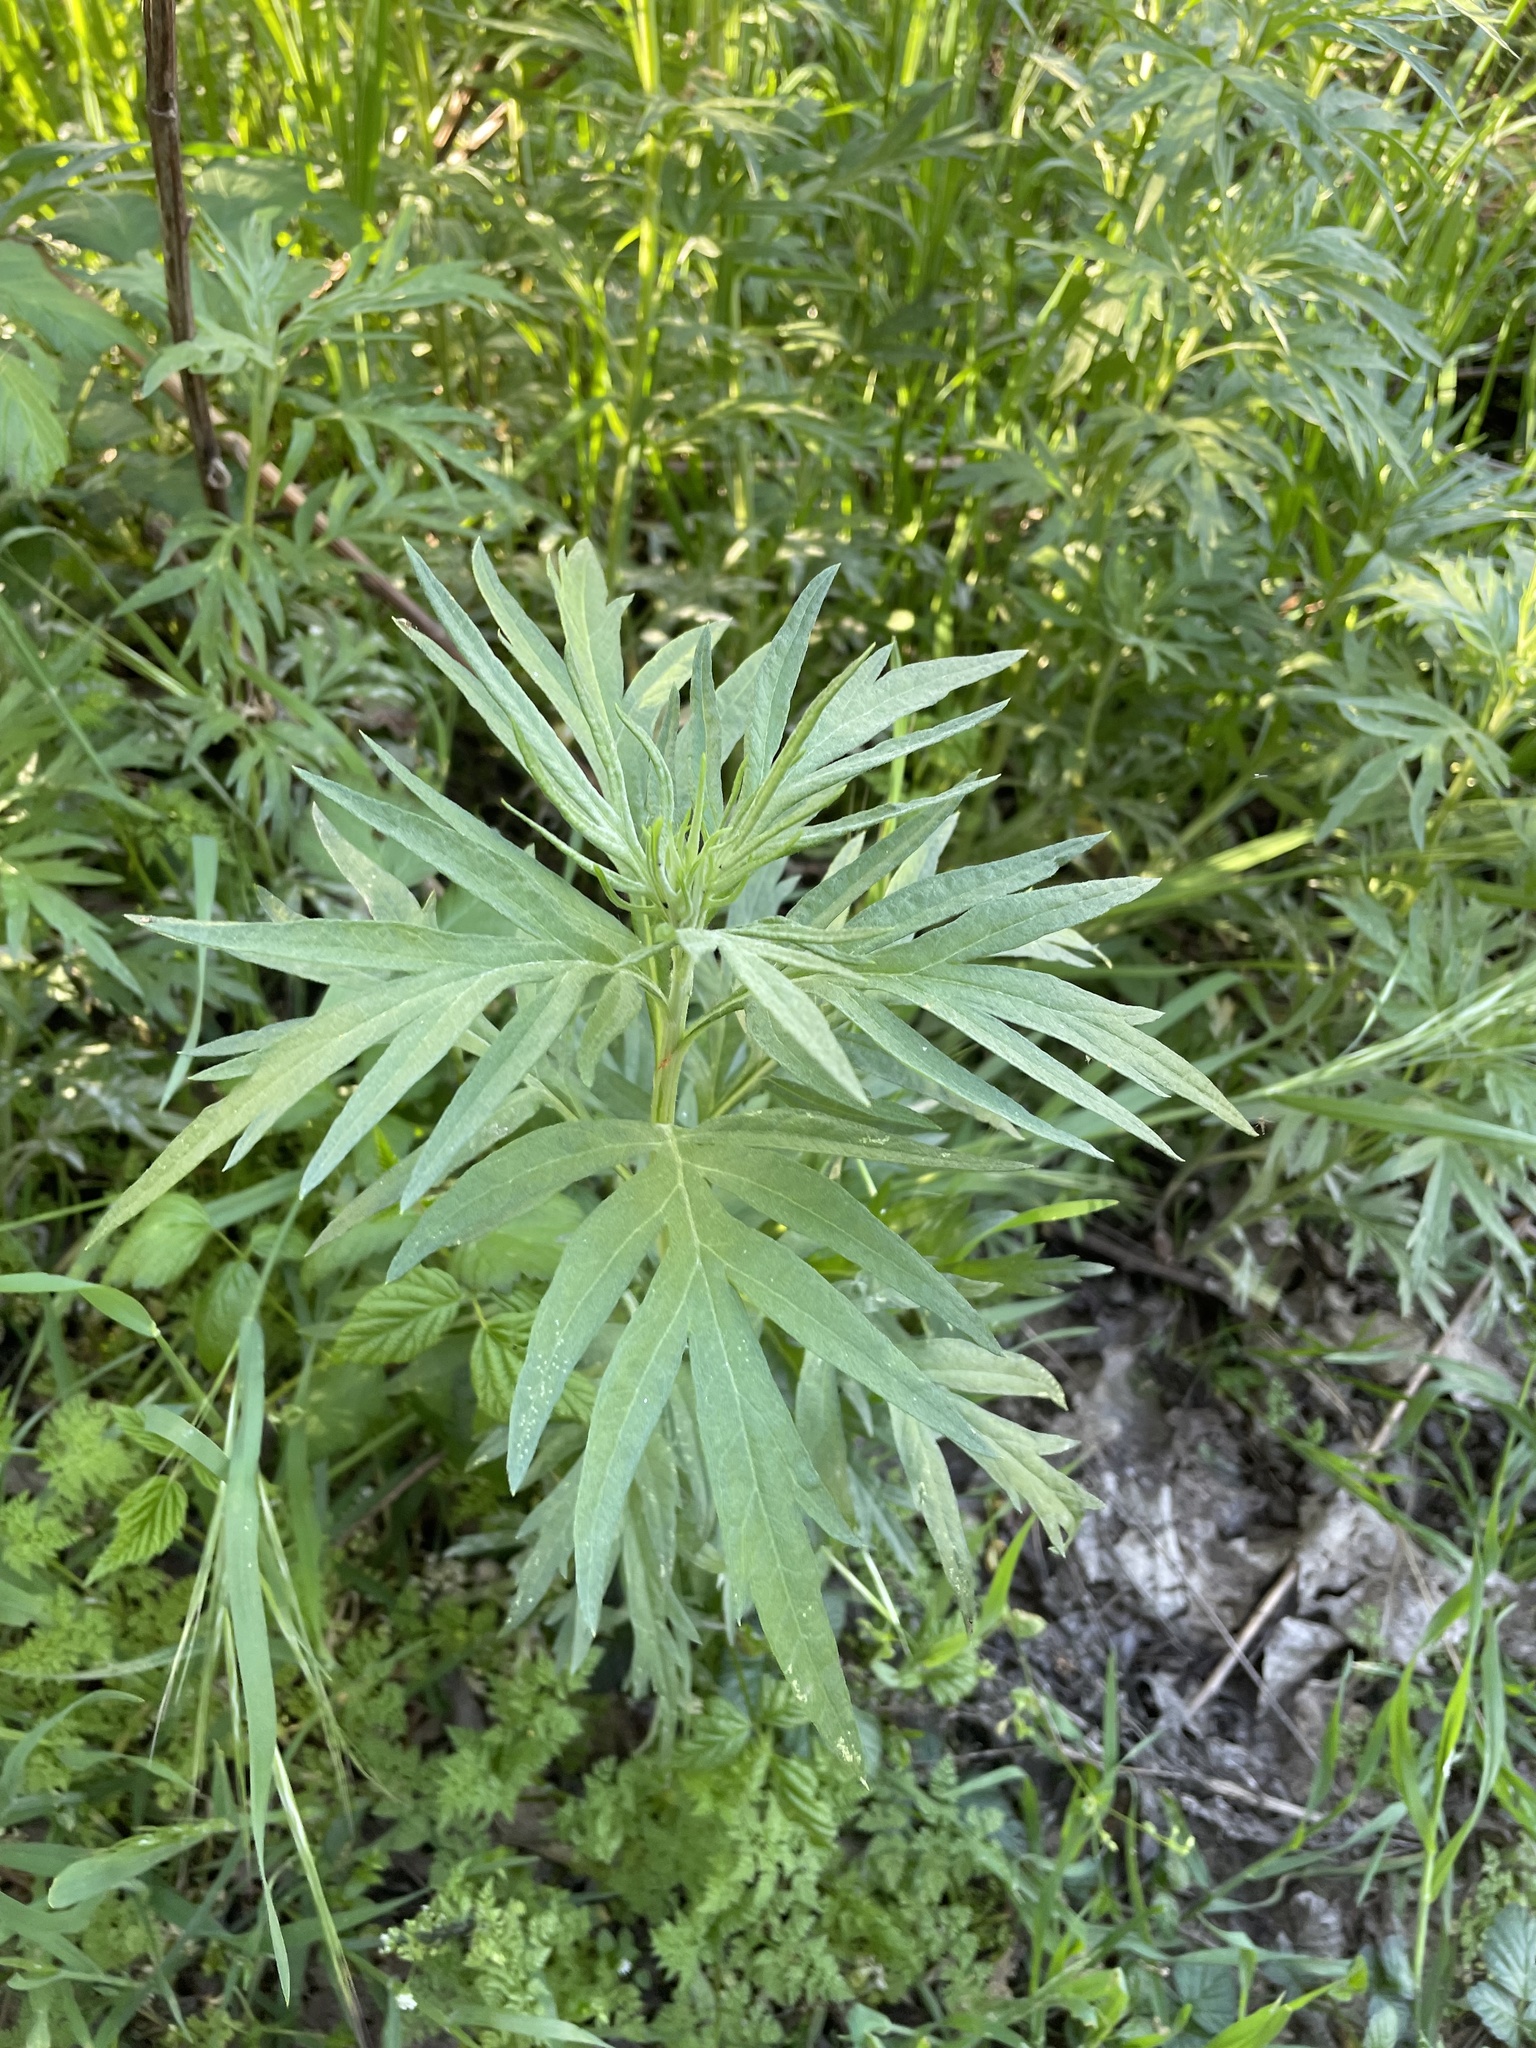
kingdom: Plantae
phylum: Tracheophyta
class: Magnoliopsida
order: Asterales
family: Asteraceae
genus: Artemisia
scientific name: Artemisia douglasiana
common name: Northwest mugwort
